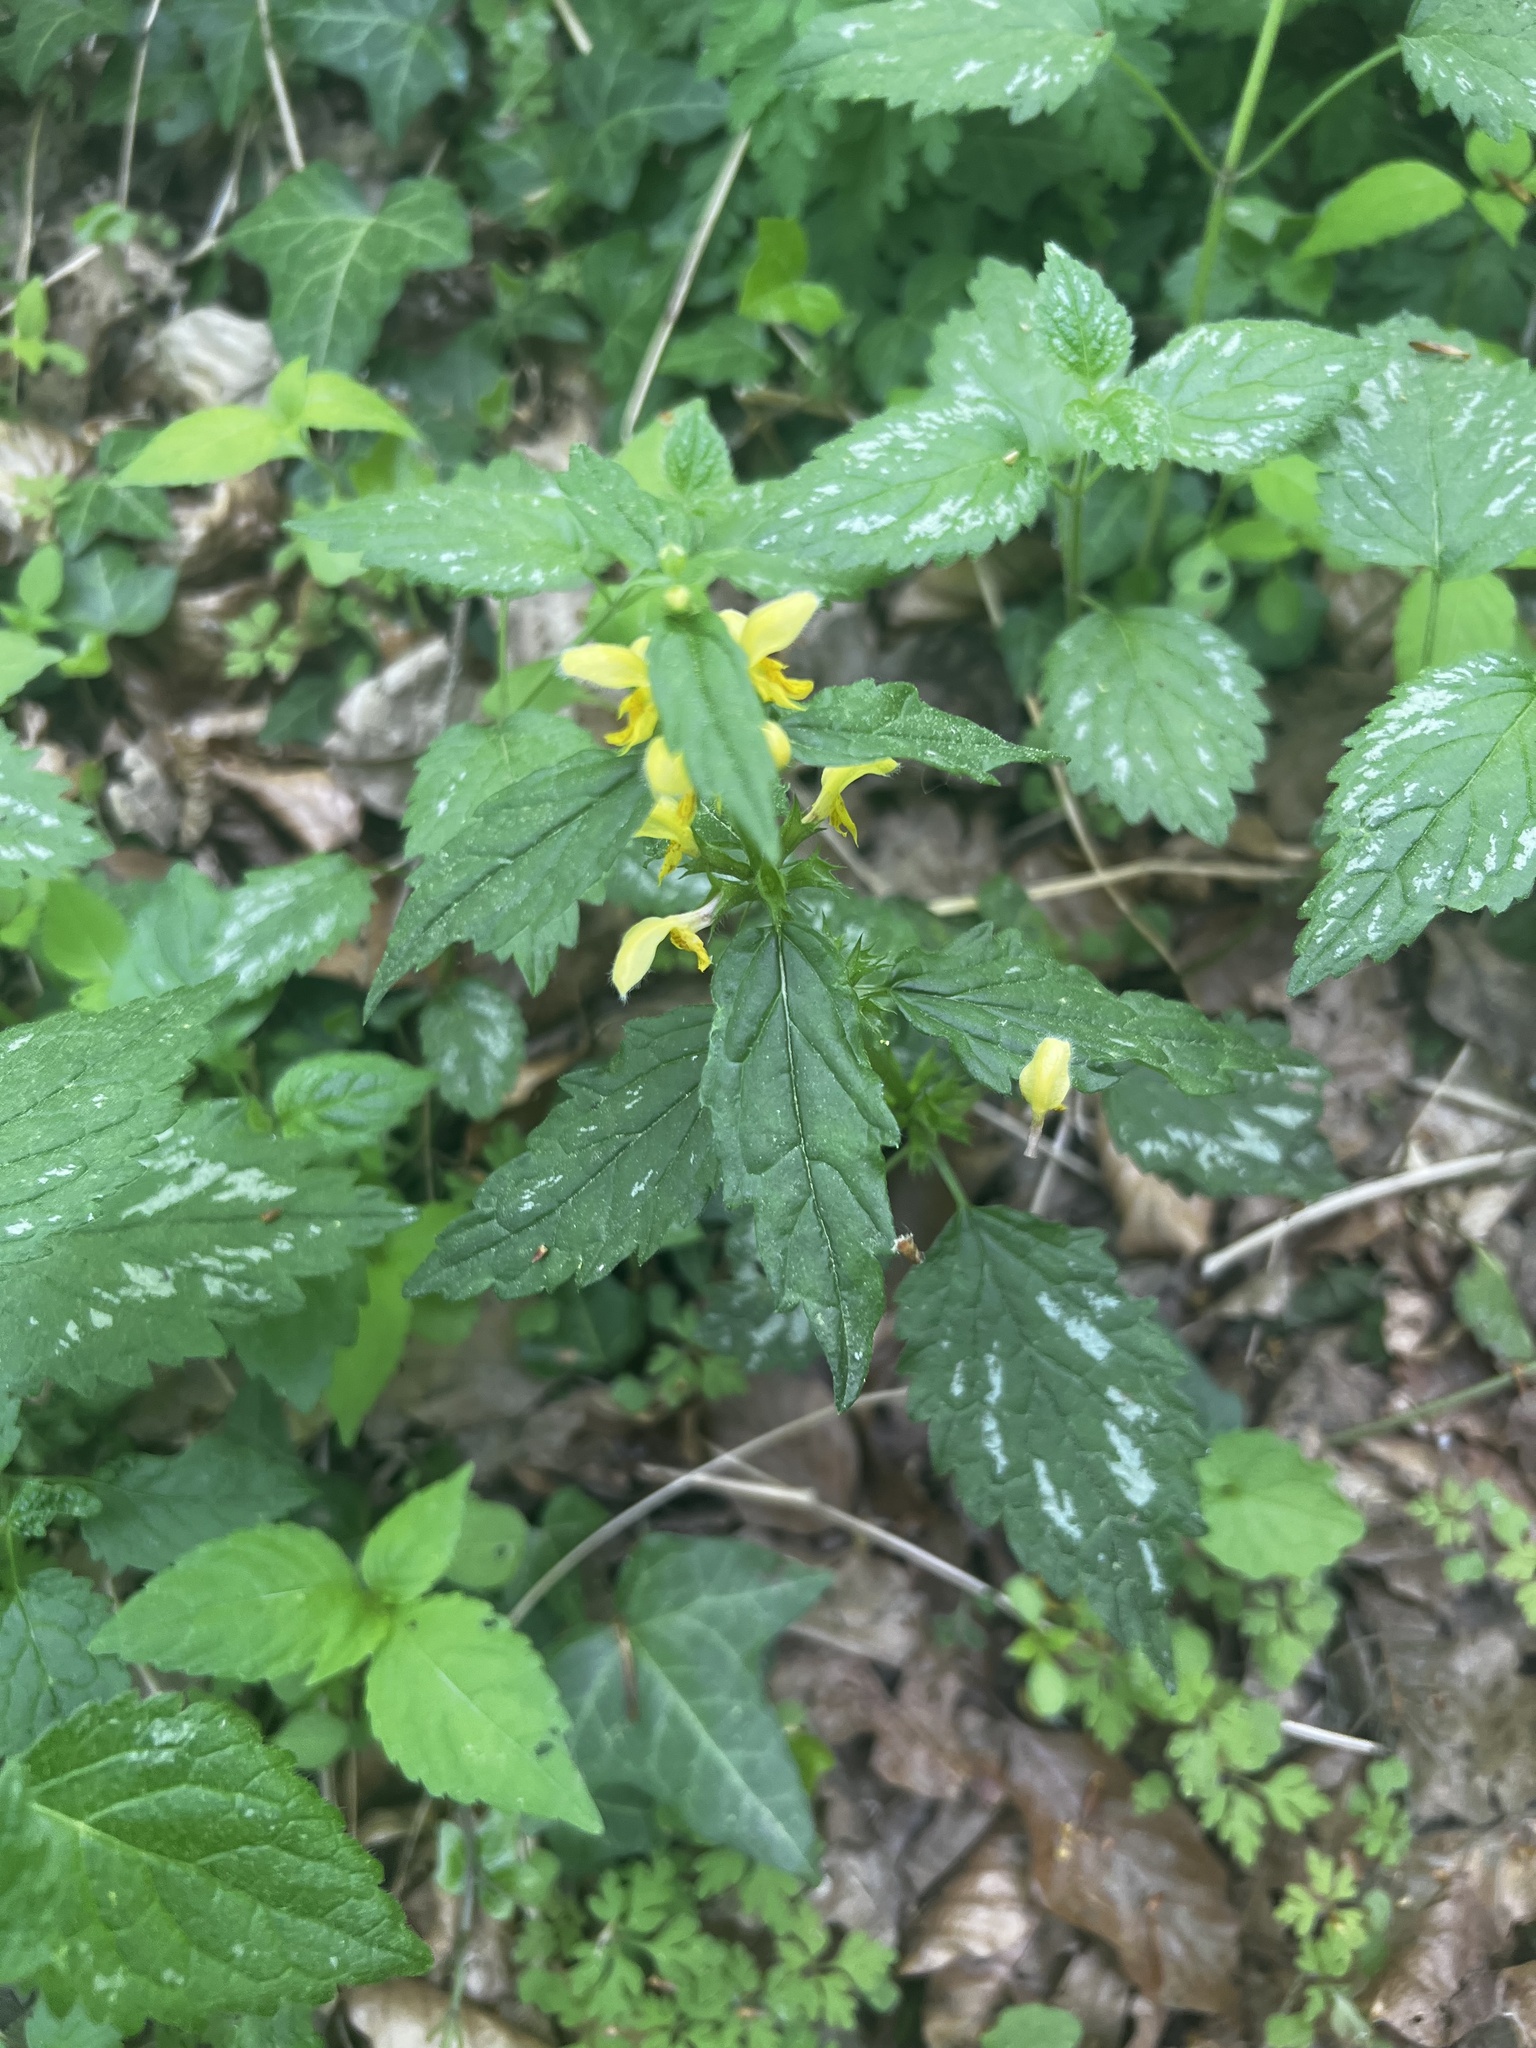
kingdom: Plantae
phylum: Tracheophyta
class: Magnoliopsida
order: Lamiales
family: Lamiaceae
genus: Lamium
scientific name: Lamium galeobdolon
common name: Yellow archangel
